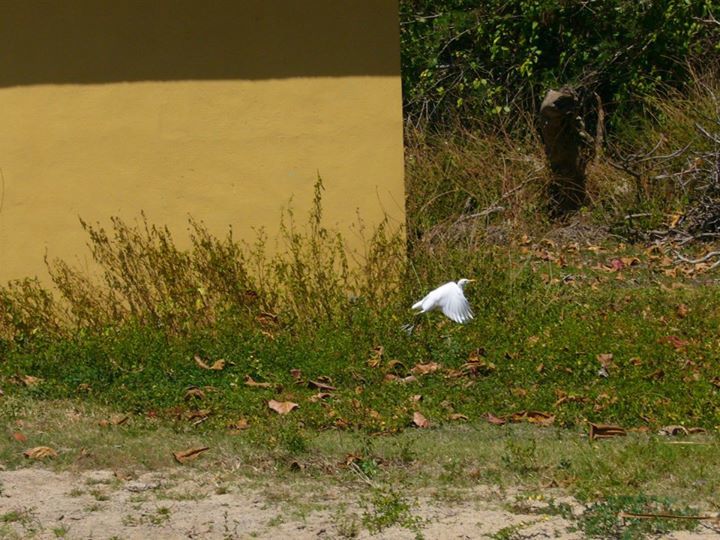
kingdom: Animalia
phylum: Chordata
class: Aves
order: Pelecaniformes
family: Ardeidae
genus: Bubulcus
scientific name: Bubulcus ibis
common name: Cattle egret
